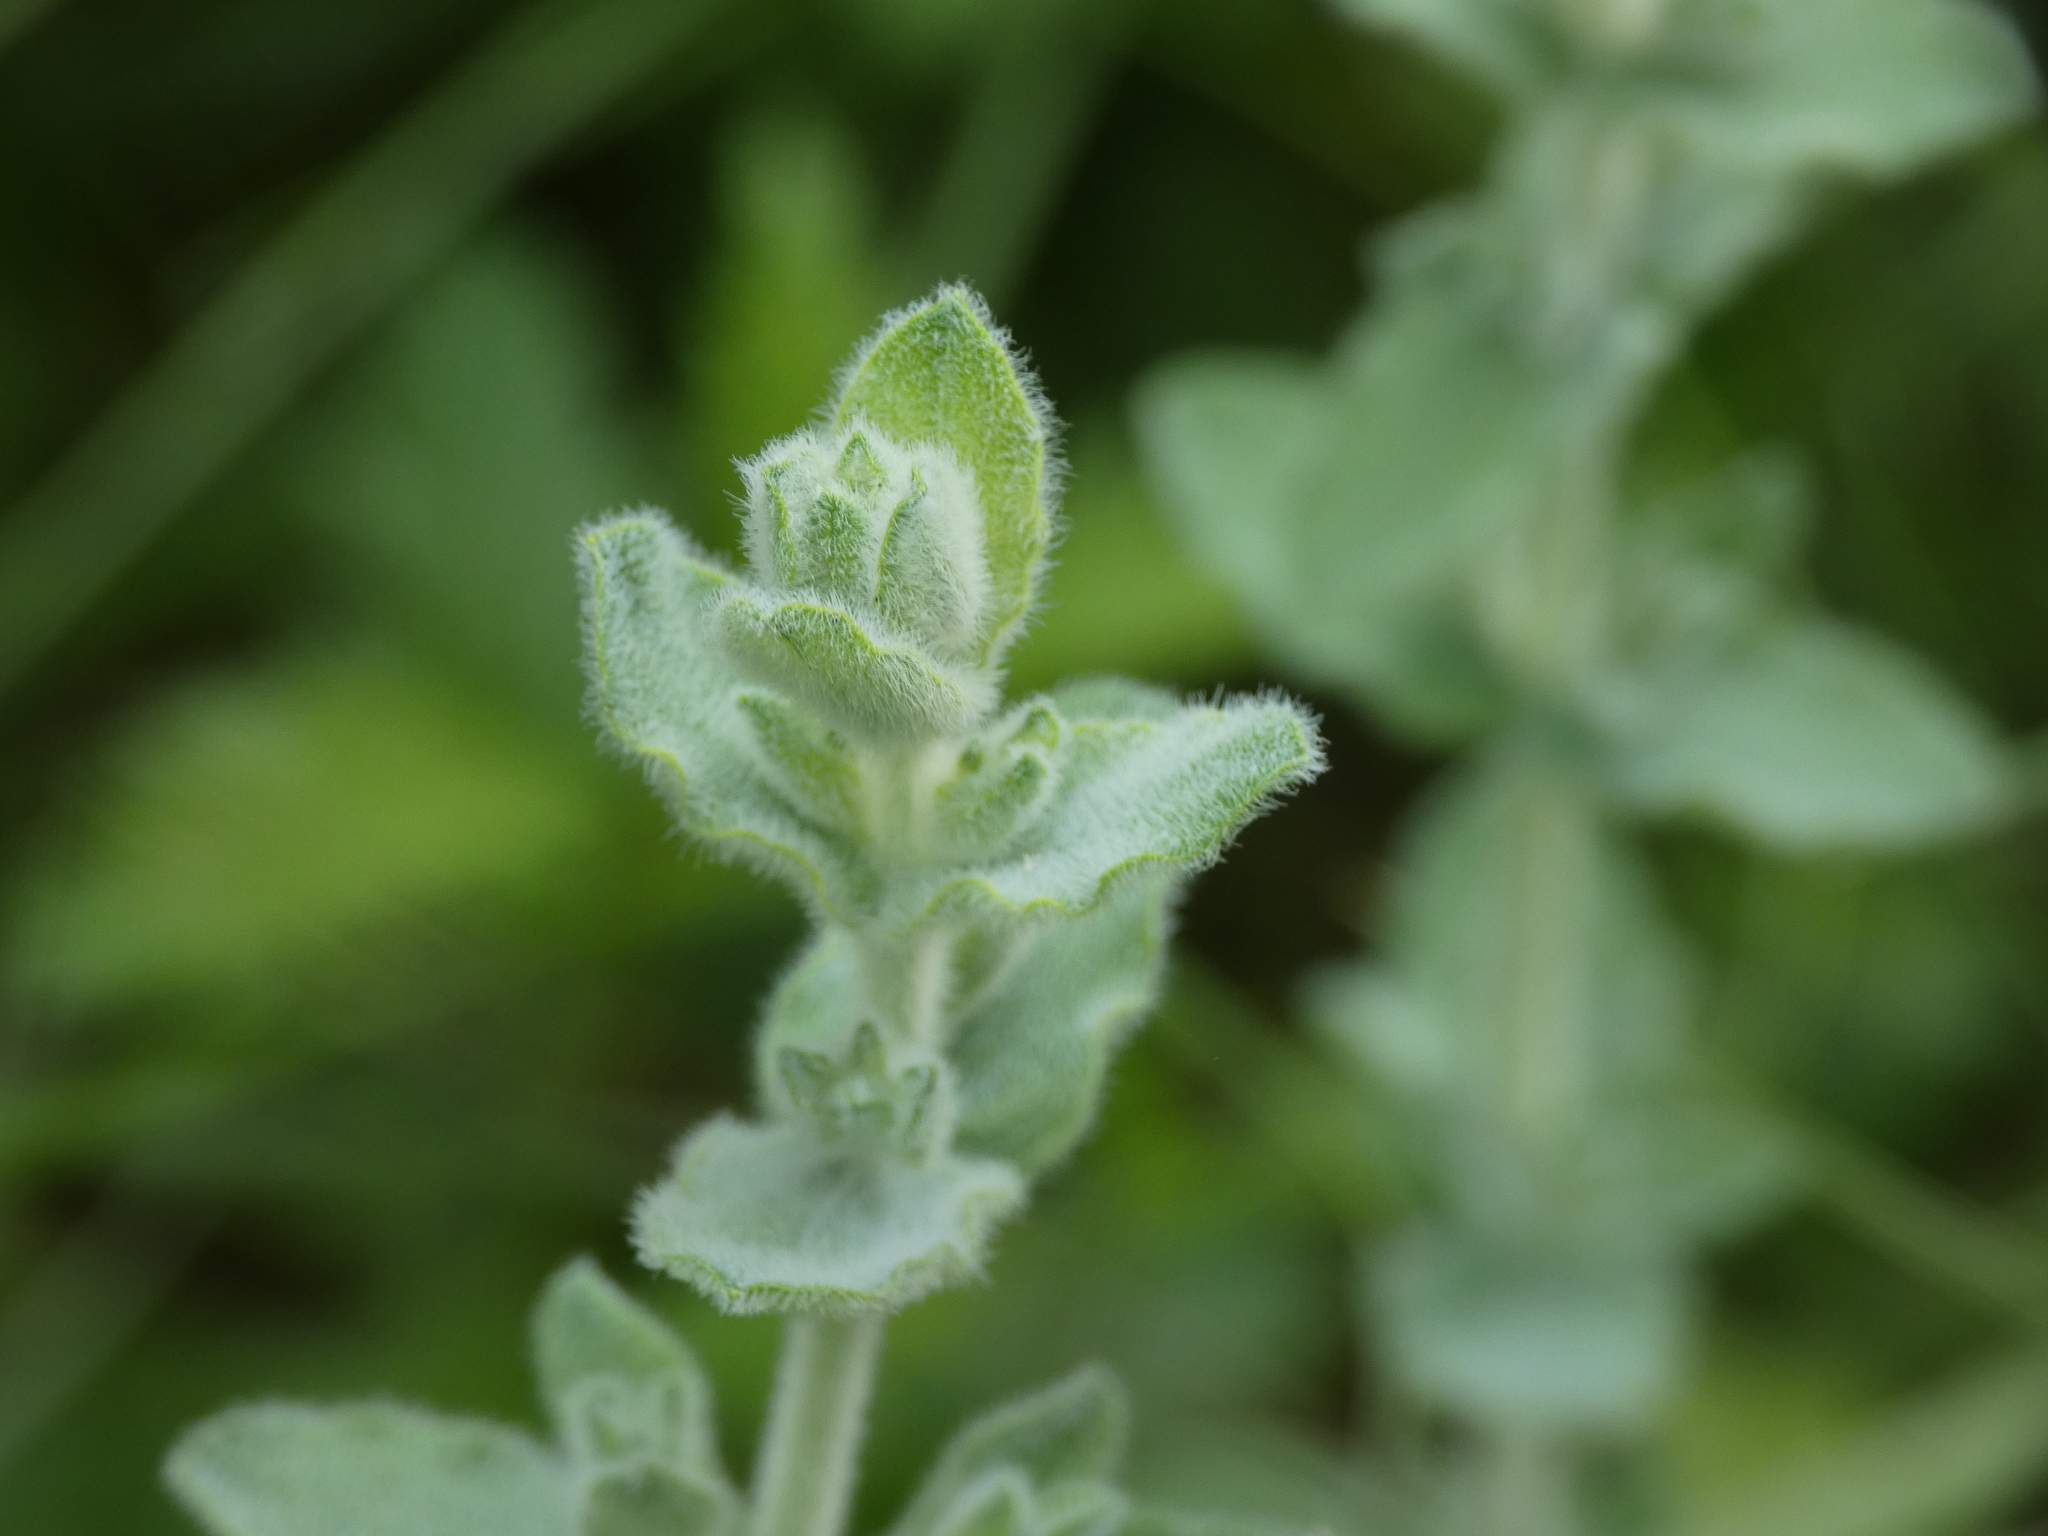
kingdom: Plantae
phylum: Tracheophyta
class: Magnoliopsida
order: Malpighiales
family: Hypericaceae
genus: Hypericum
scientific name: Hypericum tomentosum
